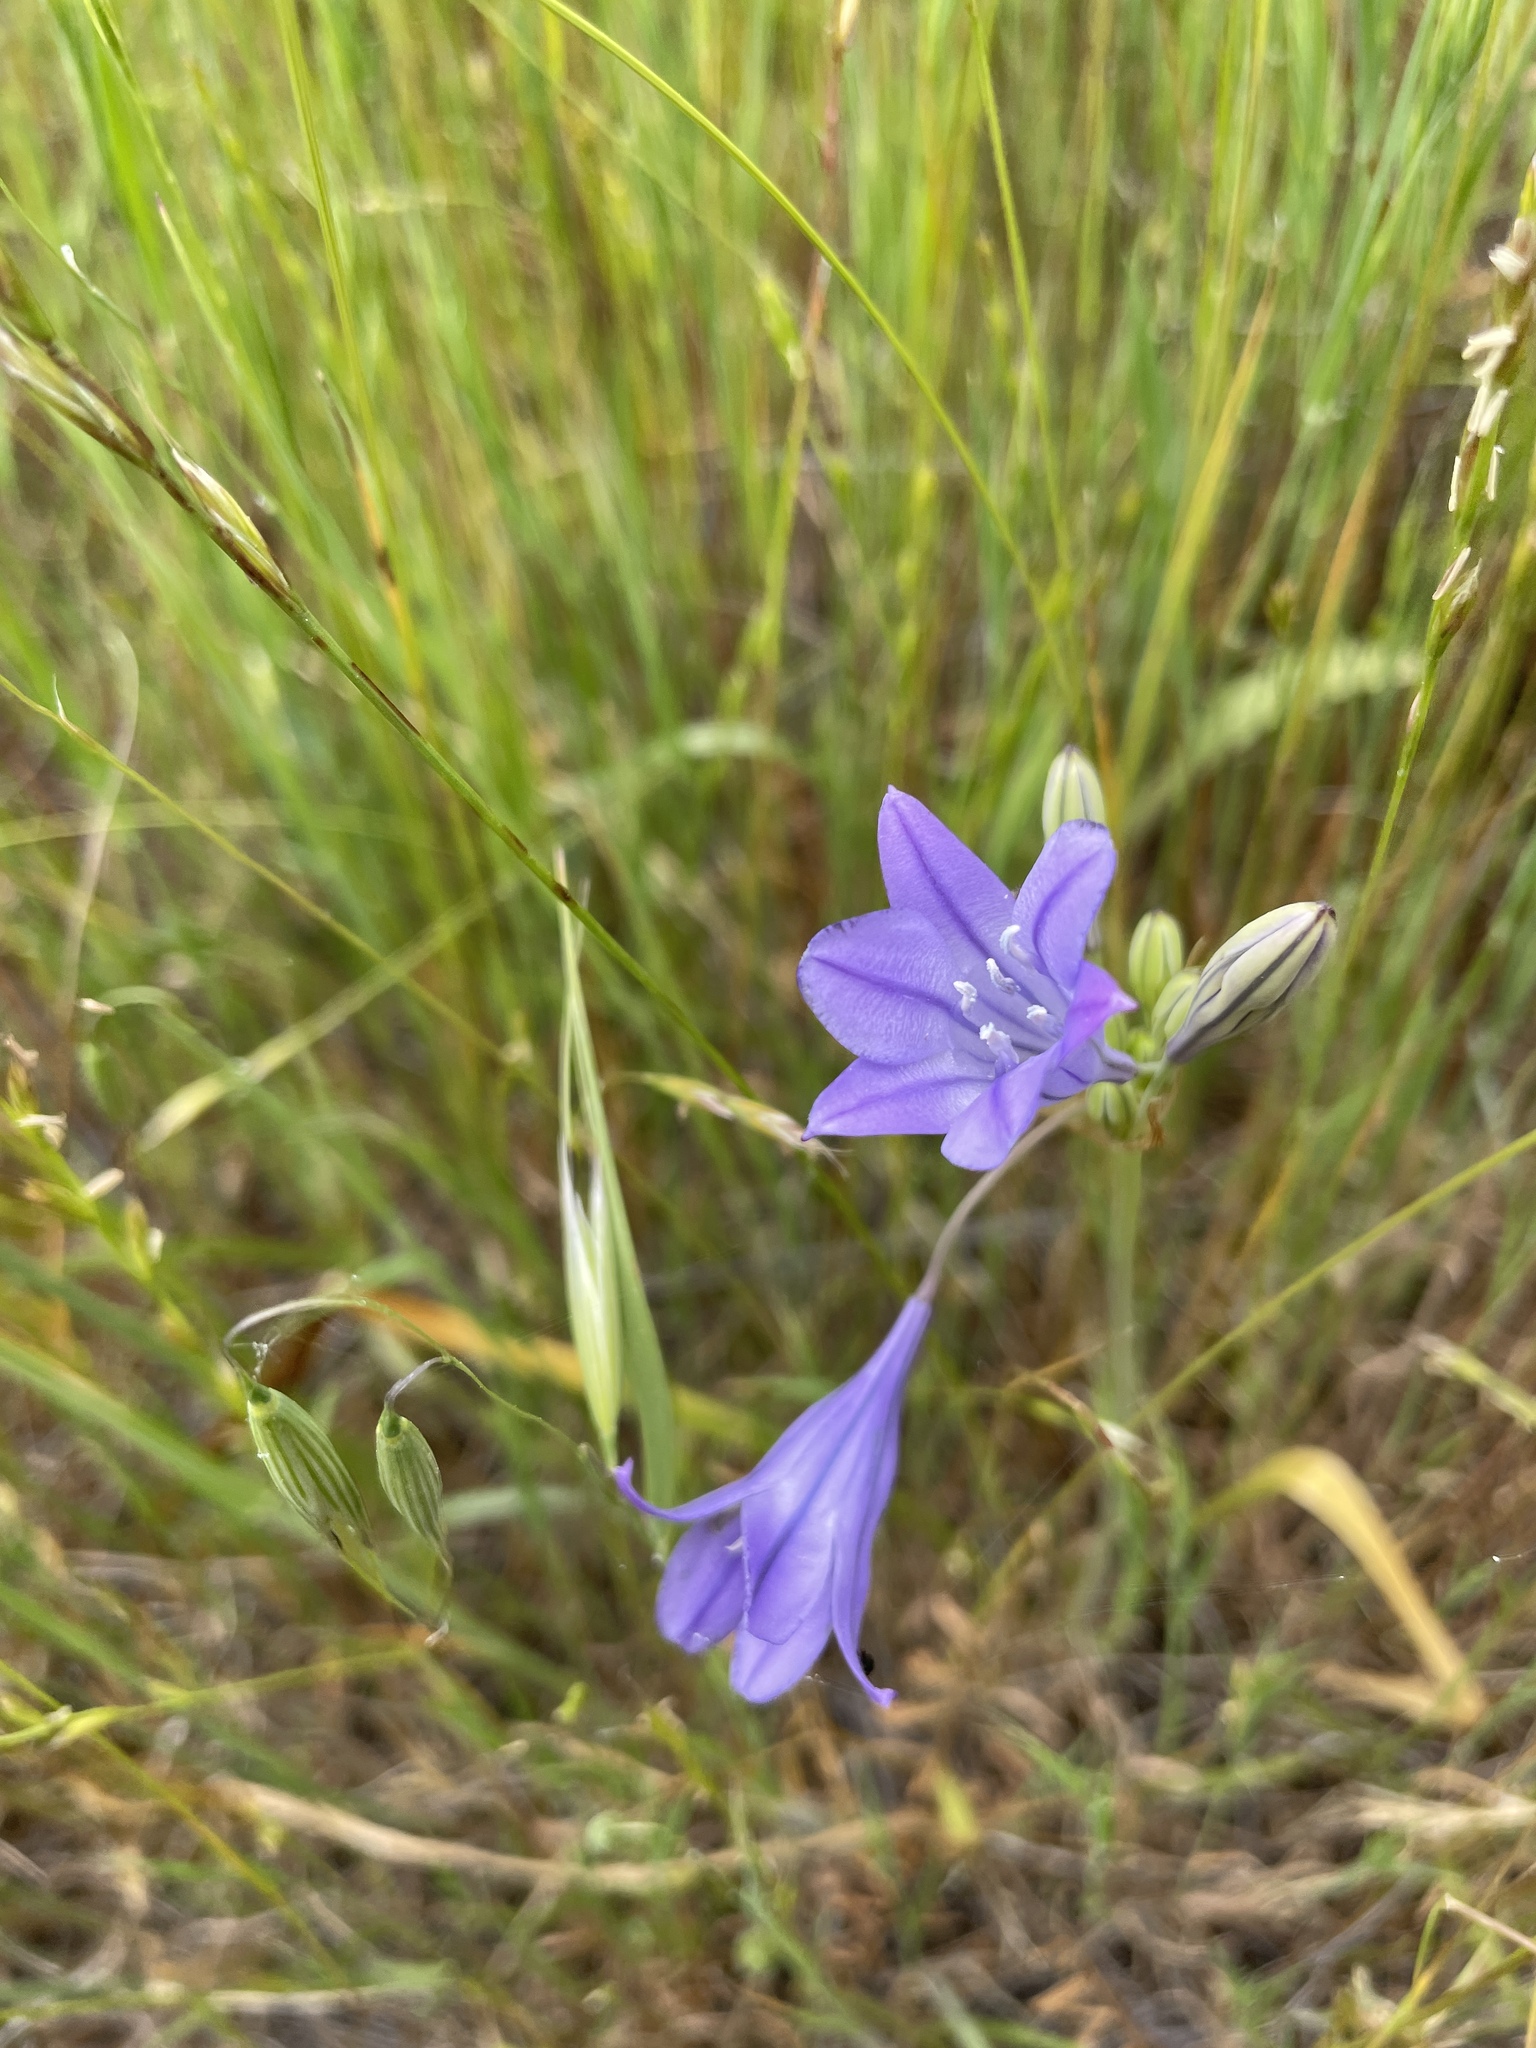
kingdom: Plantae
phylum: Tracheophyta
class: Liliopsida
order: Asparagales
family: Asparagaceae
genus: Triteleia
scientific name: Triteleia laxa
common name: Triplet-lily
